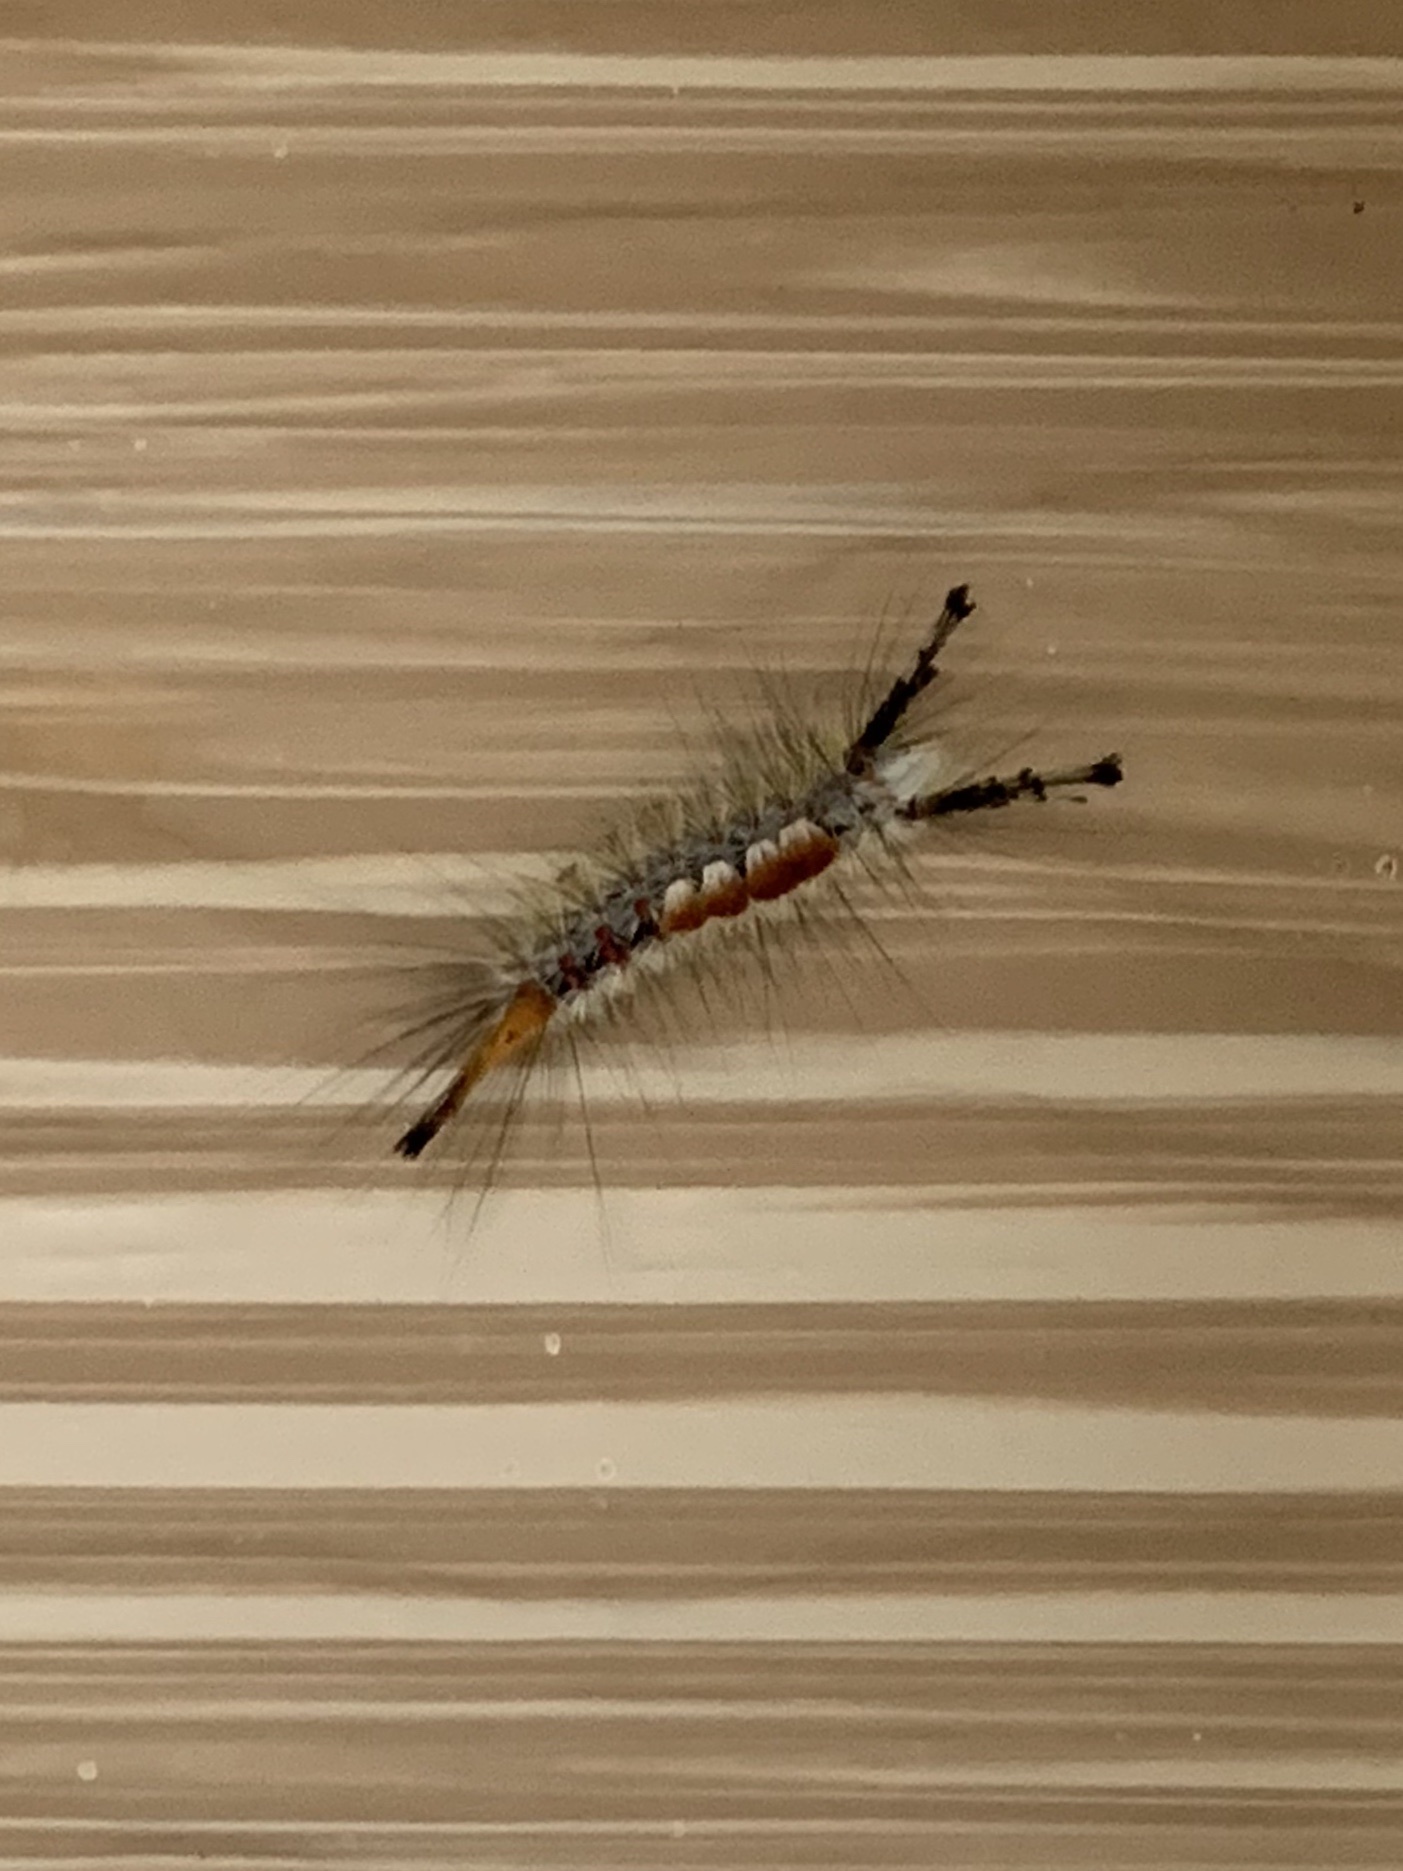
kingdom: Animalia
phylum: Arthropoda
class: Insecta
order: Lepidoptera
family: Erebidae
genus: Orgyia
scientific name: Orgyia pseudotsugata
